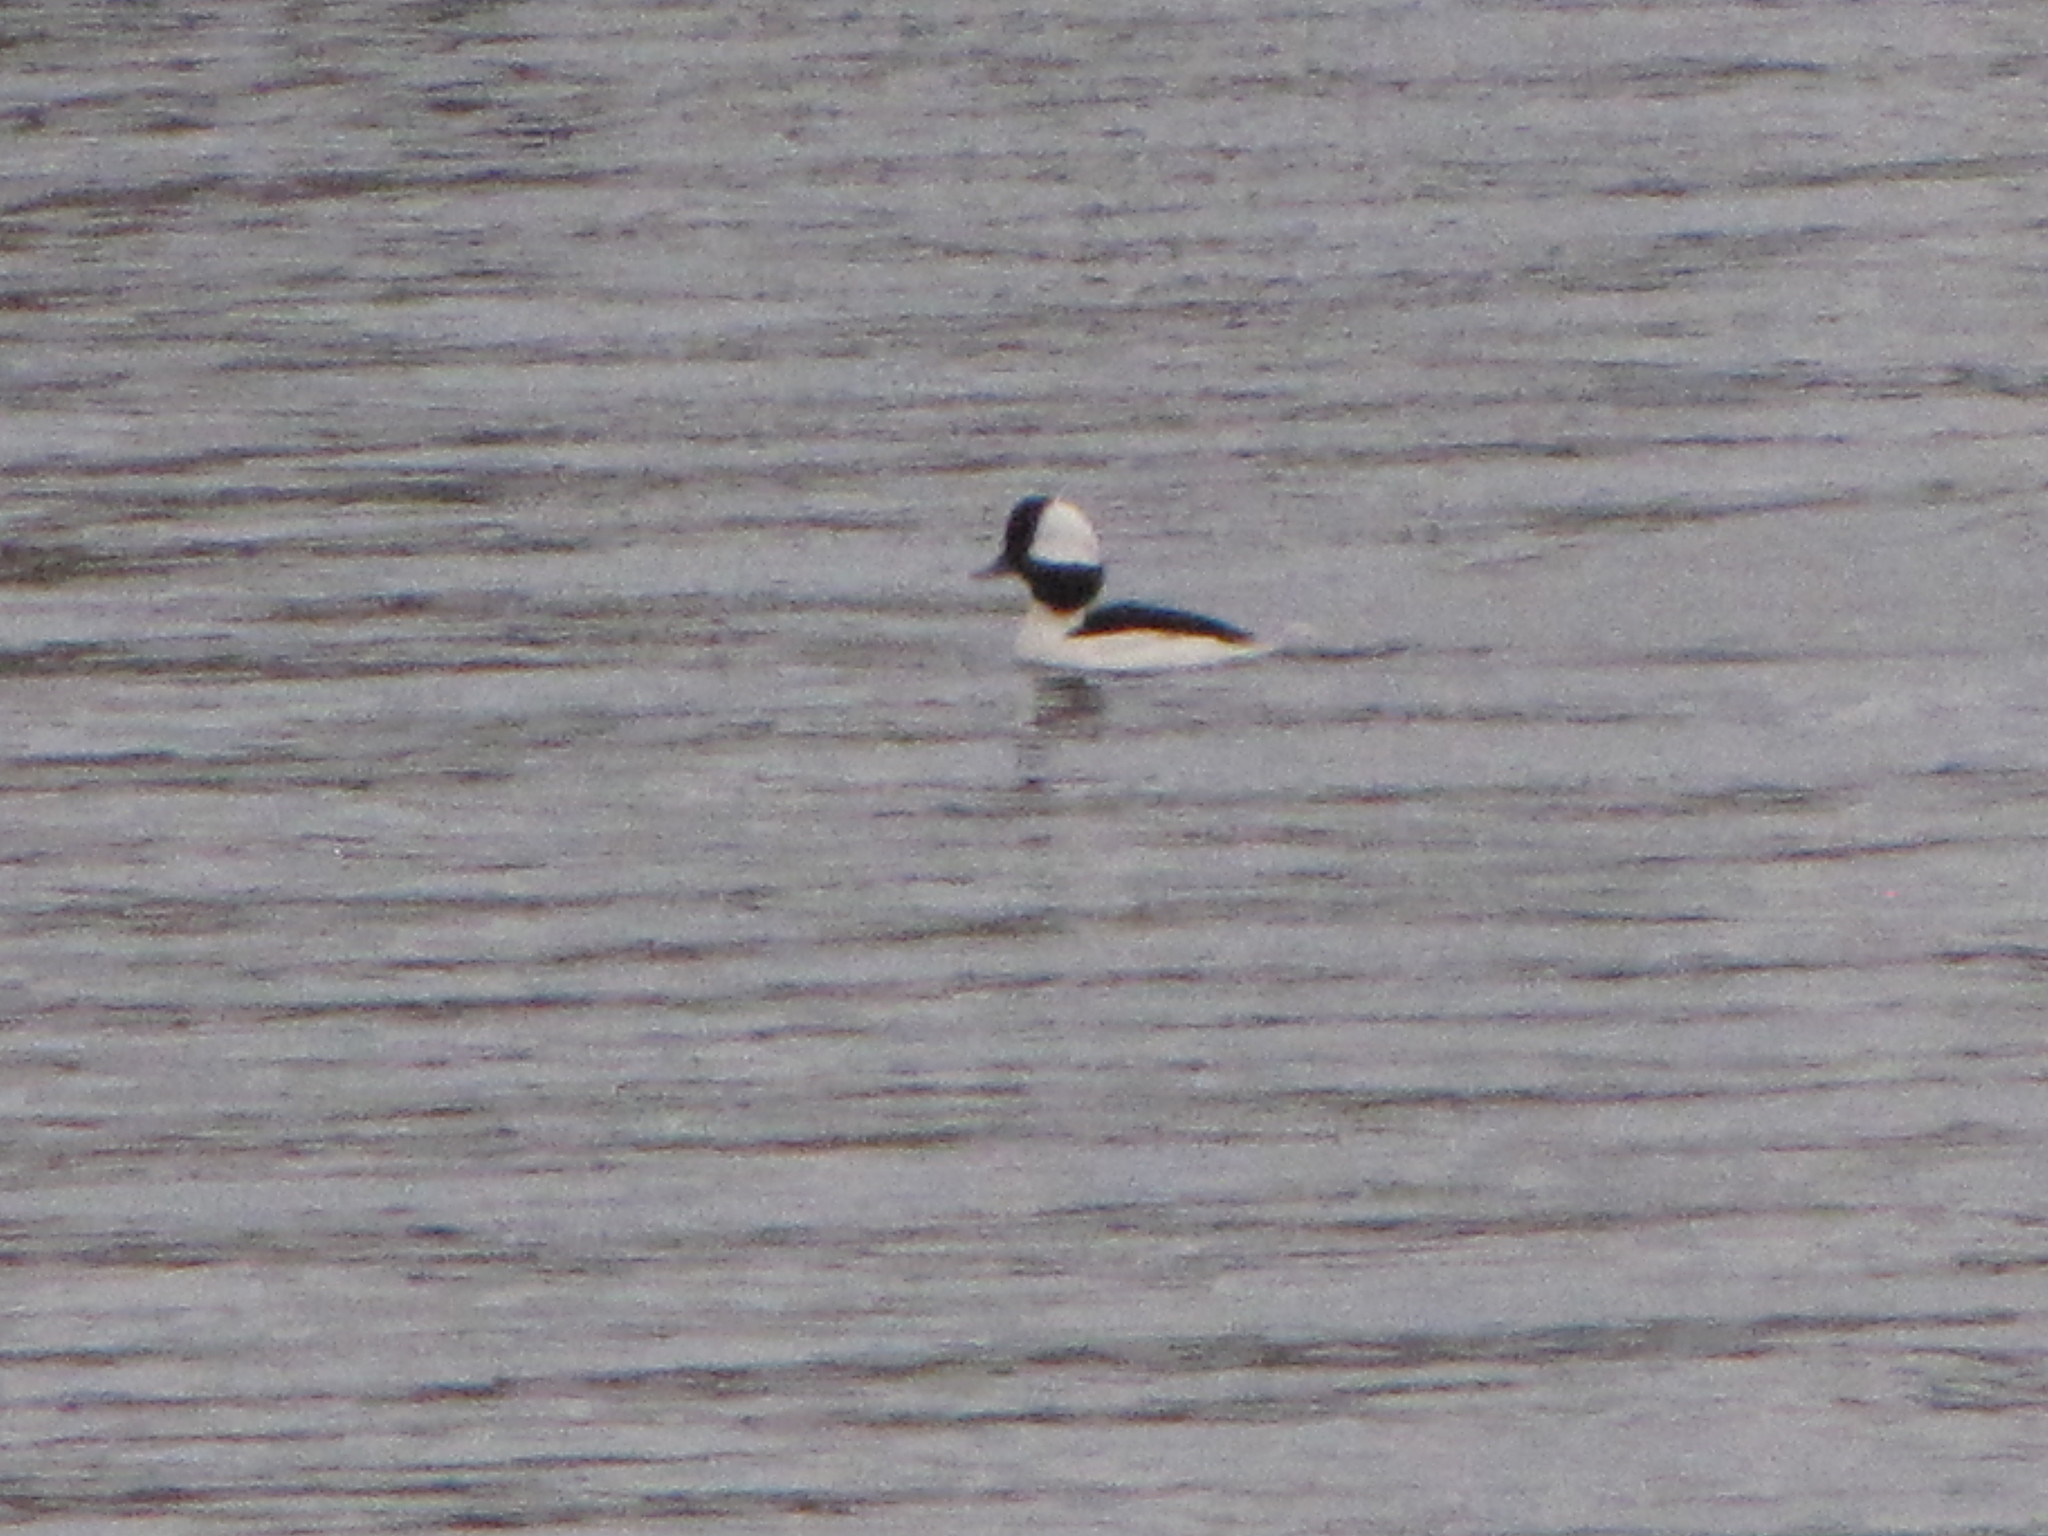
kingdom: Animalia
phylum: Chordata
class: Aves
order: Anseriformes
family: Anatidae
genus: Bucephala
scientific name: Bucephala albeola
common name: Bufflehead
